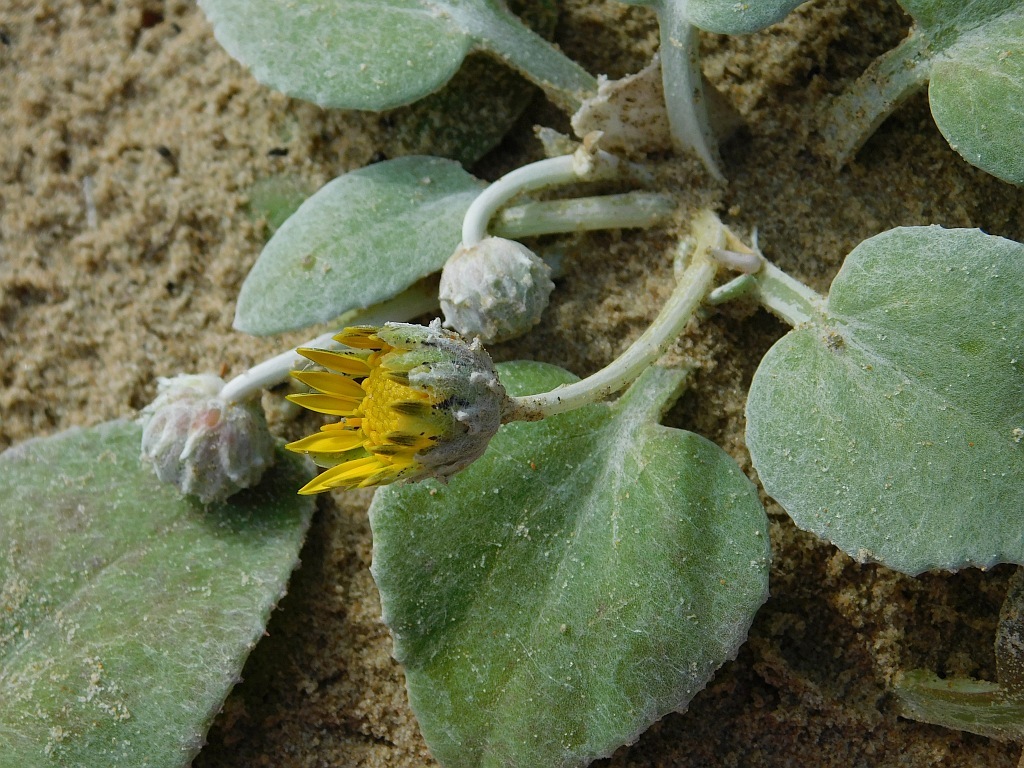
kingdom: Plantae
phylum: Tracheophyta
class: Magnoliopsida
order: Asterales
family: Asteraceae
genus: Arctotheca
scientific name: Arctotheca populifolia
